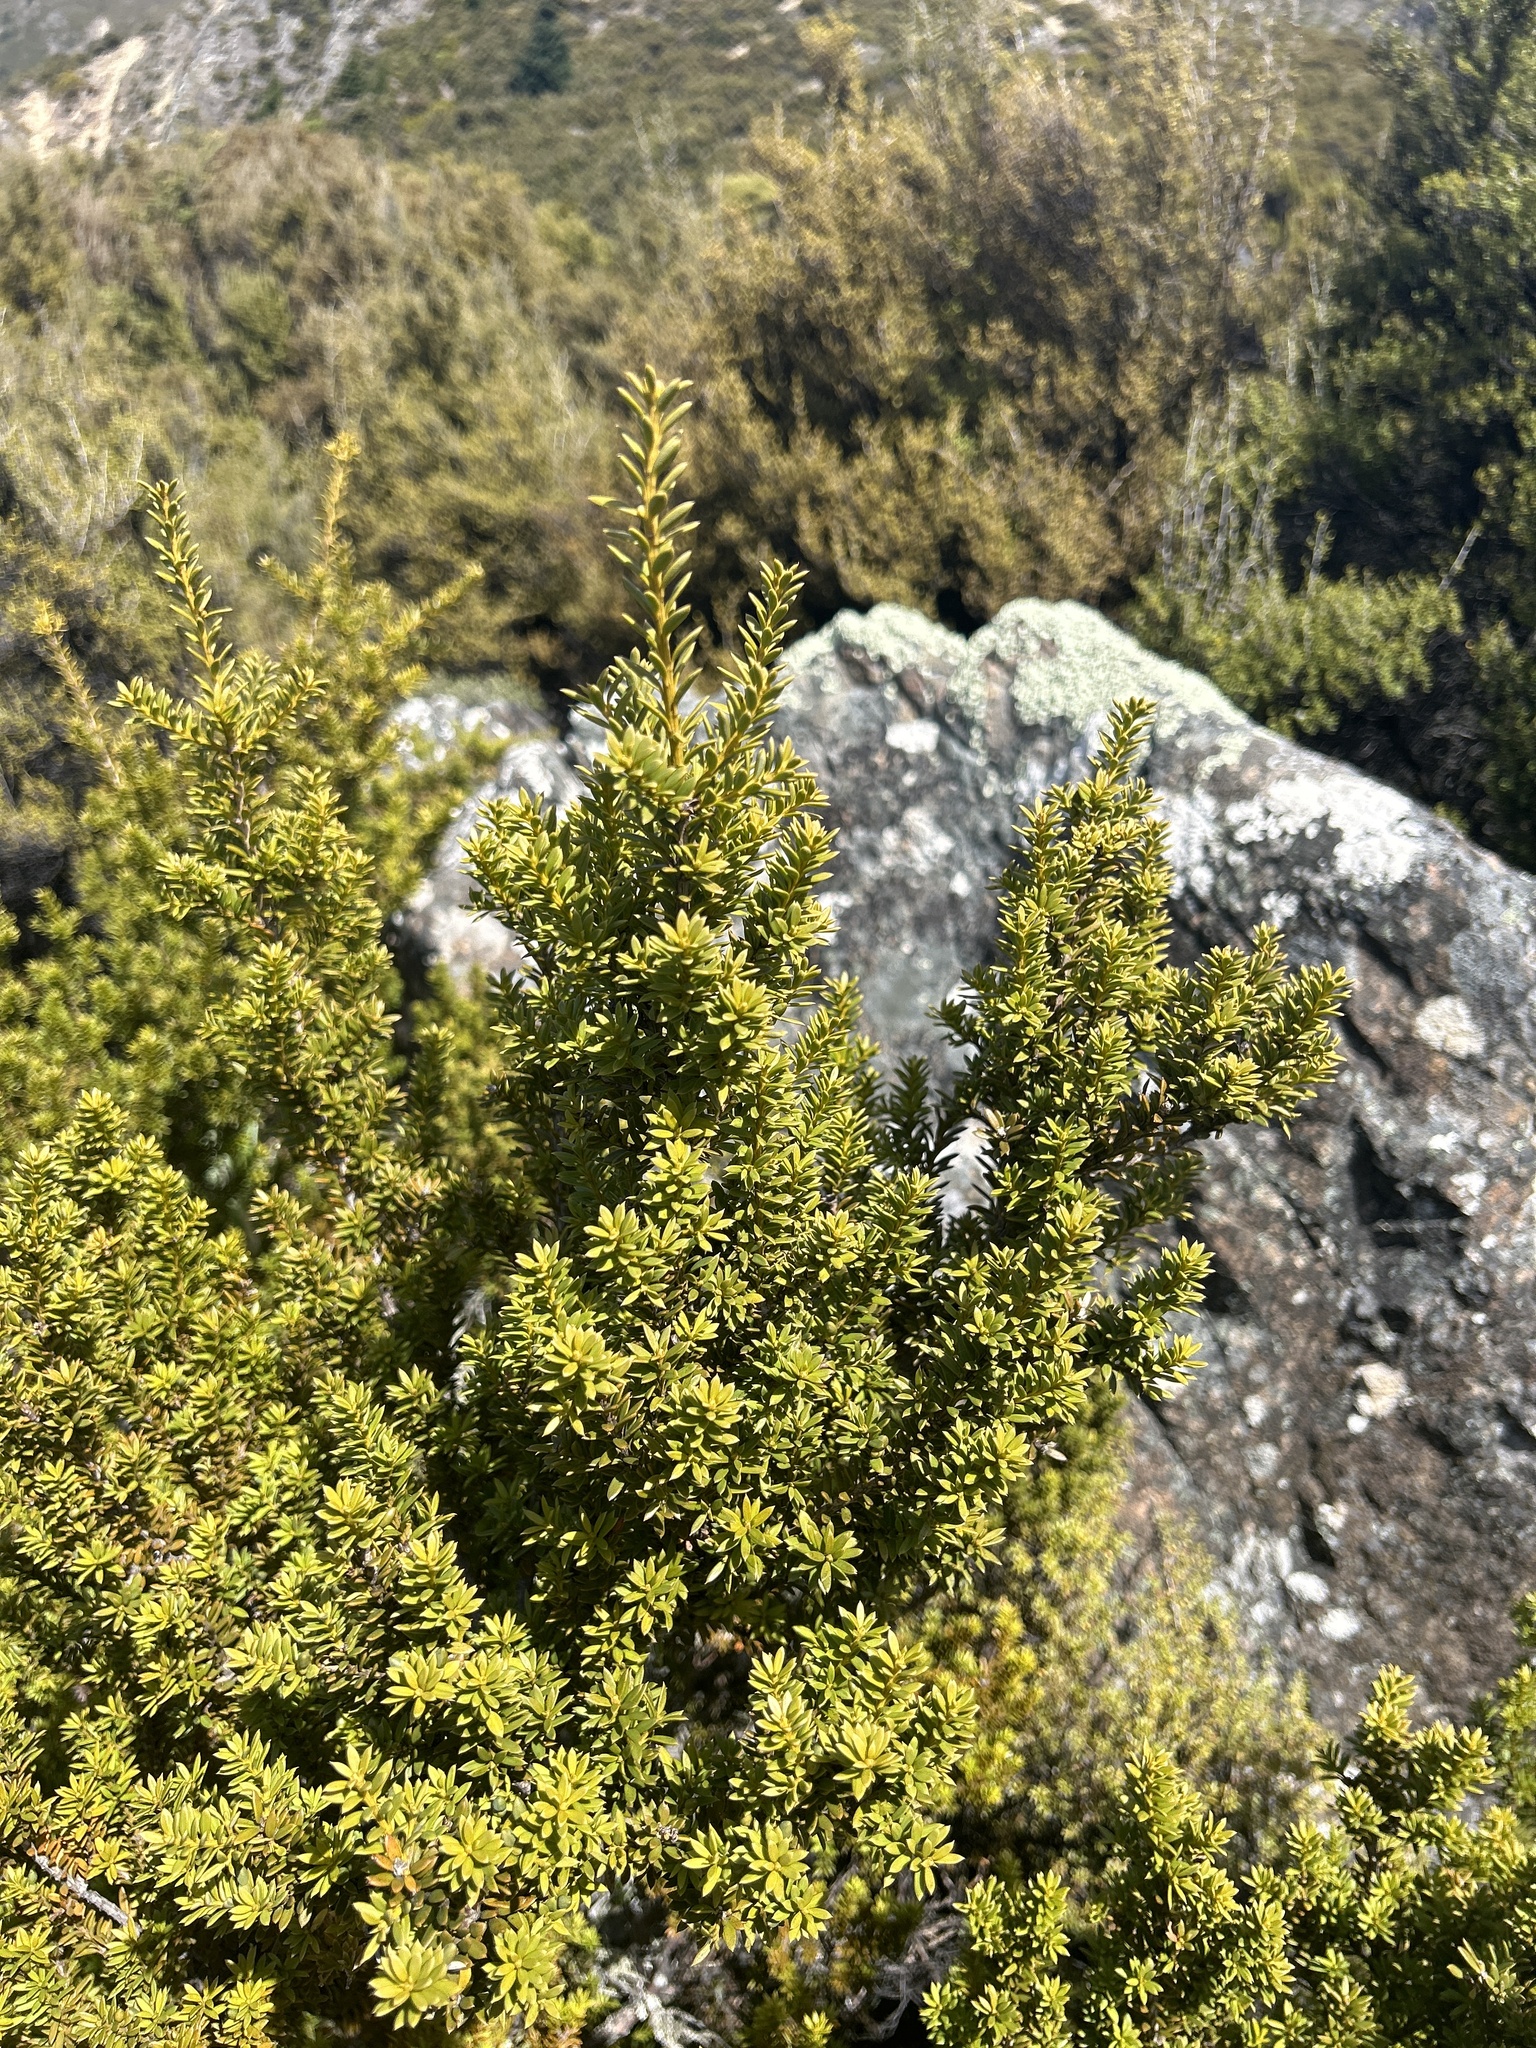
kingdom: Plantae
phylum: Tracheophyta
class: Pinopsida
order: Pinales
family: Podocarpaceae
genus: Podocarpus
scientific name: Podocarpus nivalis
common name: Alpine totara
